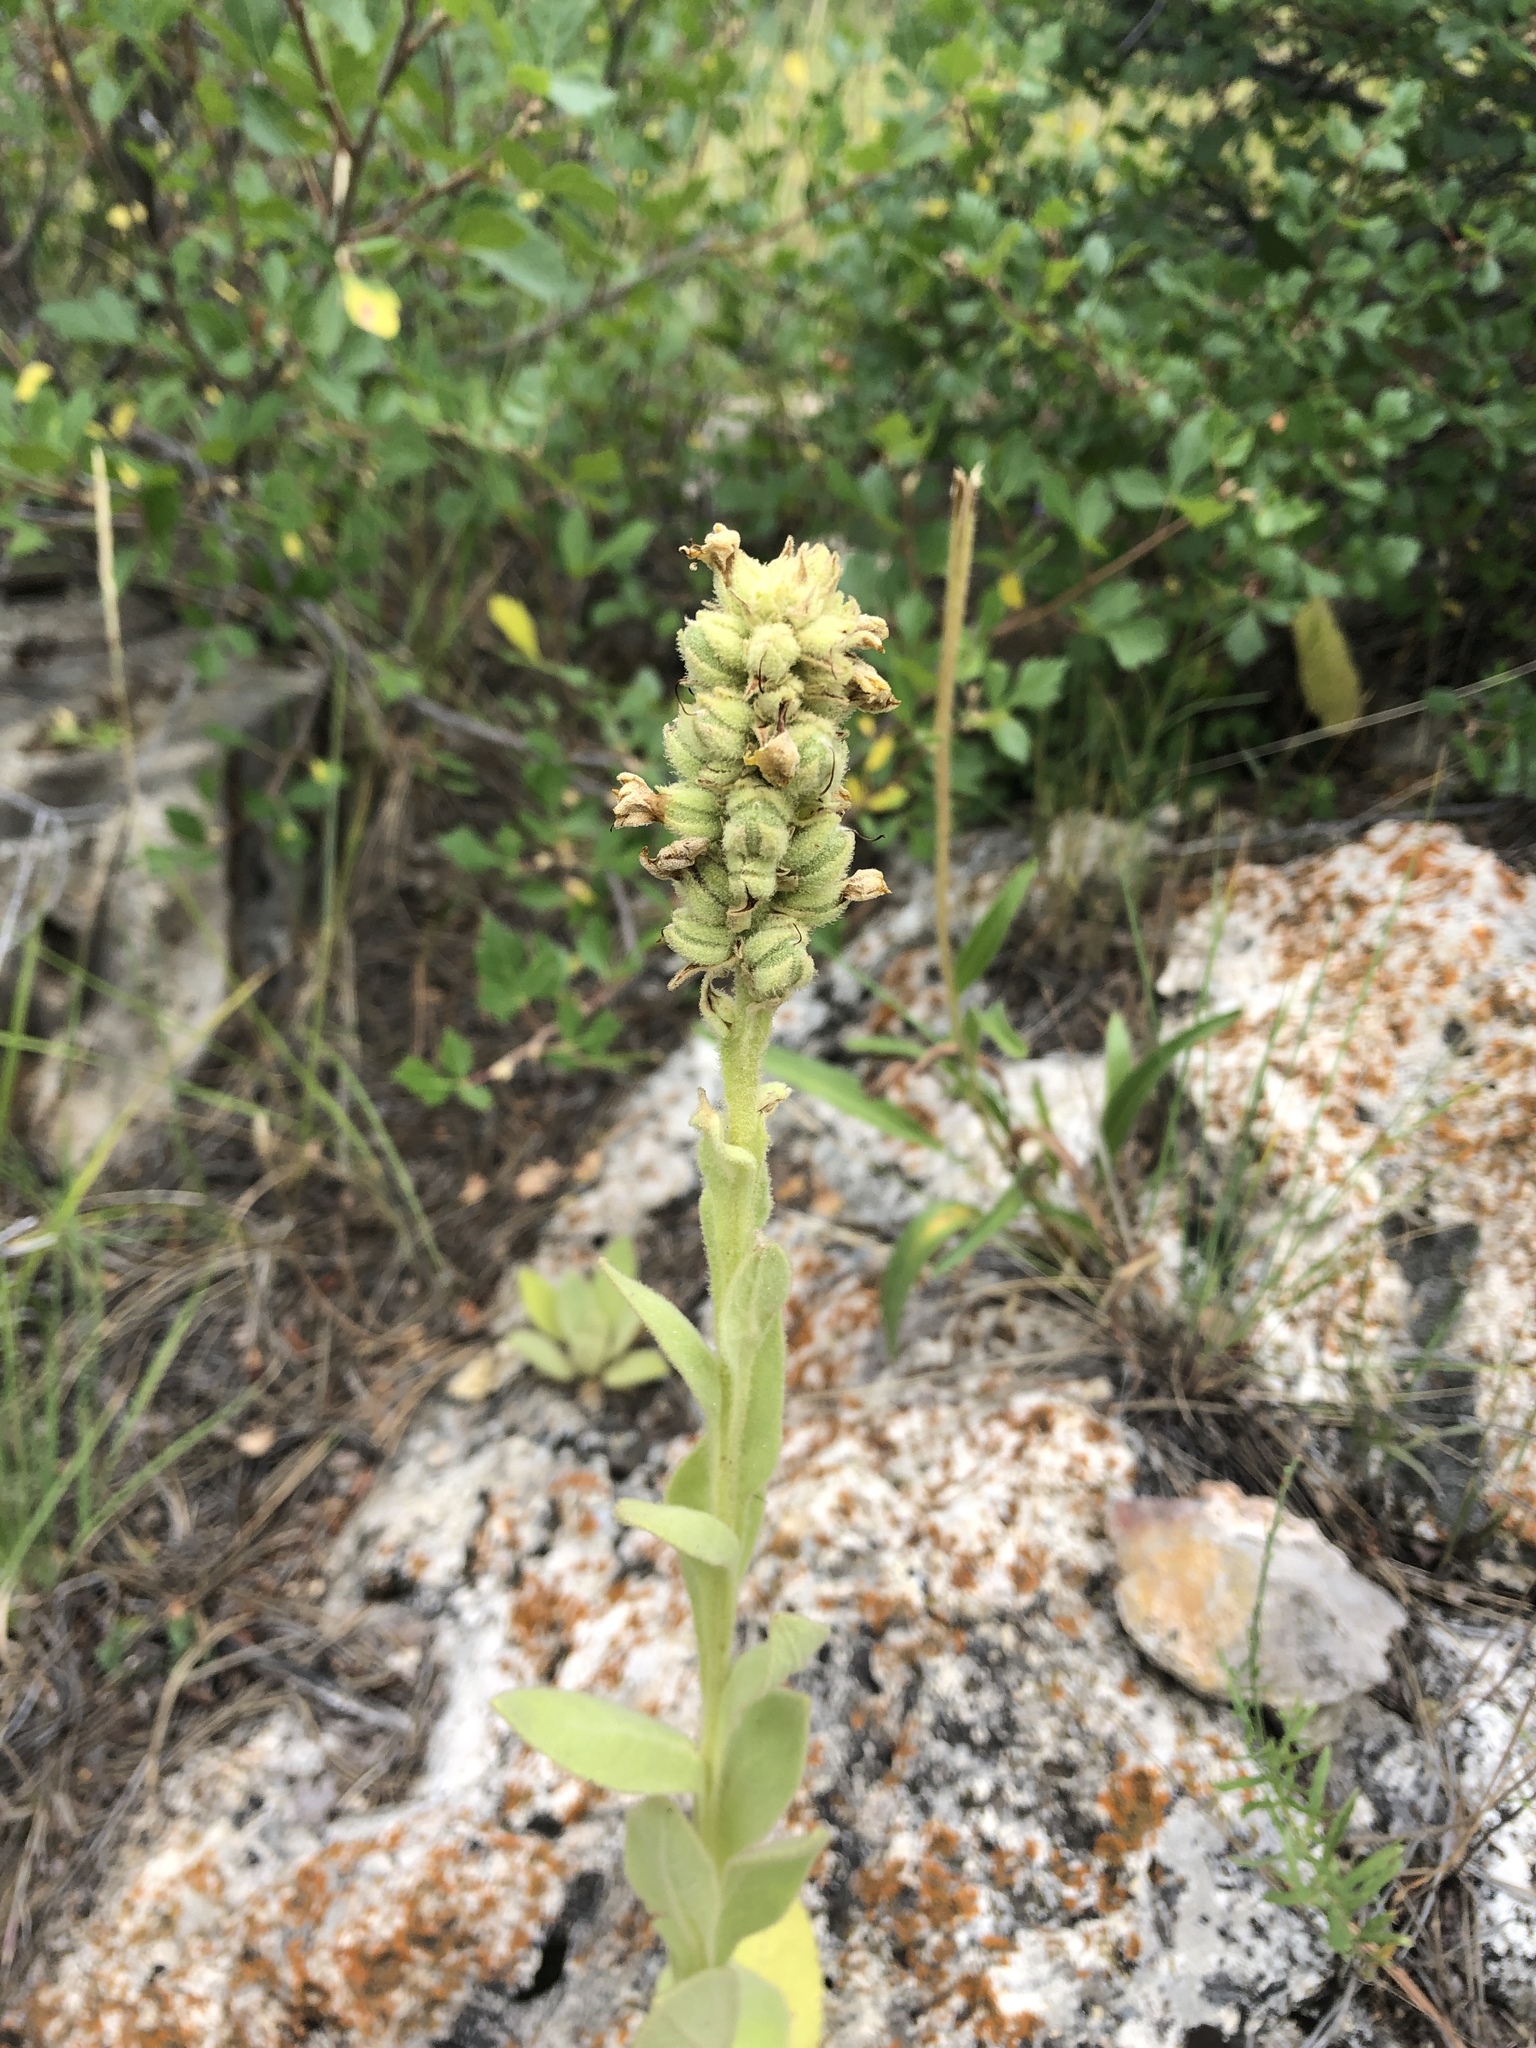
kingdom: Plantae
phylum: Tracheophyta
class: Magnoliopsida
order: Lamiales
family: Scrophulariaceae
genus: Verbascum
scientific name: Verbascum thapsus
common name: Common mullein
